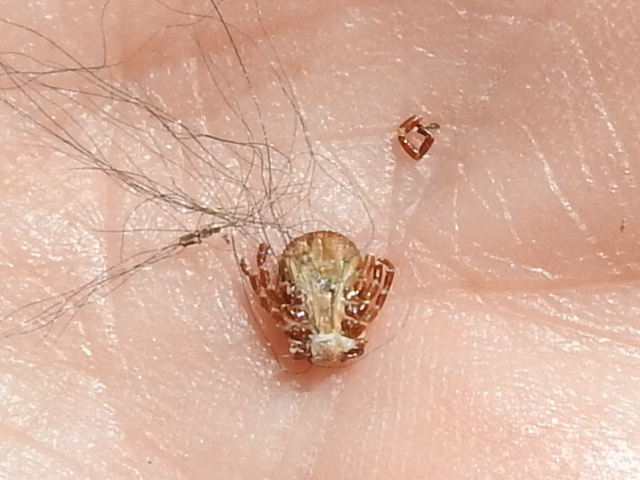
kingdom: Animalia
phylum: Arthropoda
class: Arachnida
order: Ixodida
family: Ixodidae
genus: Amblyomma
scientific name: Amblyomma triste
